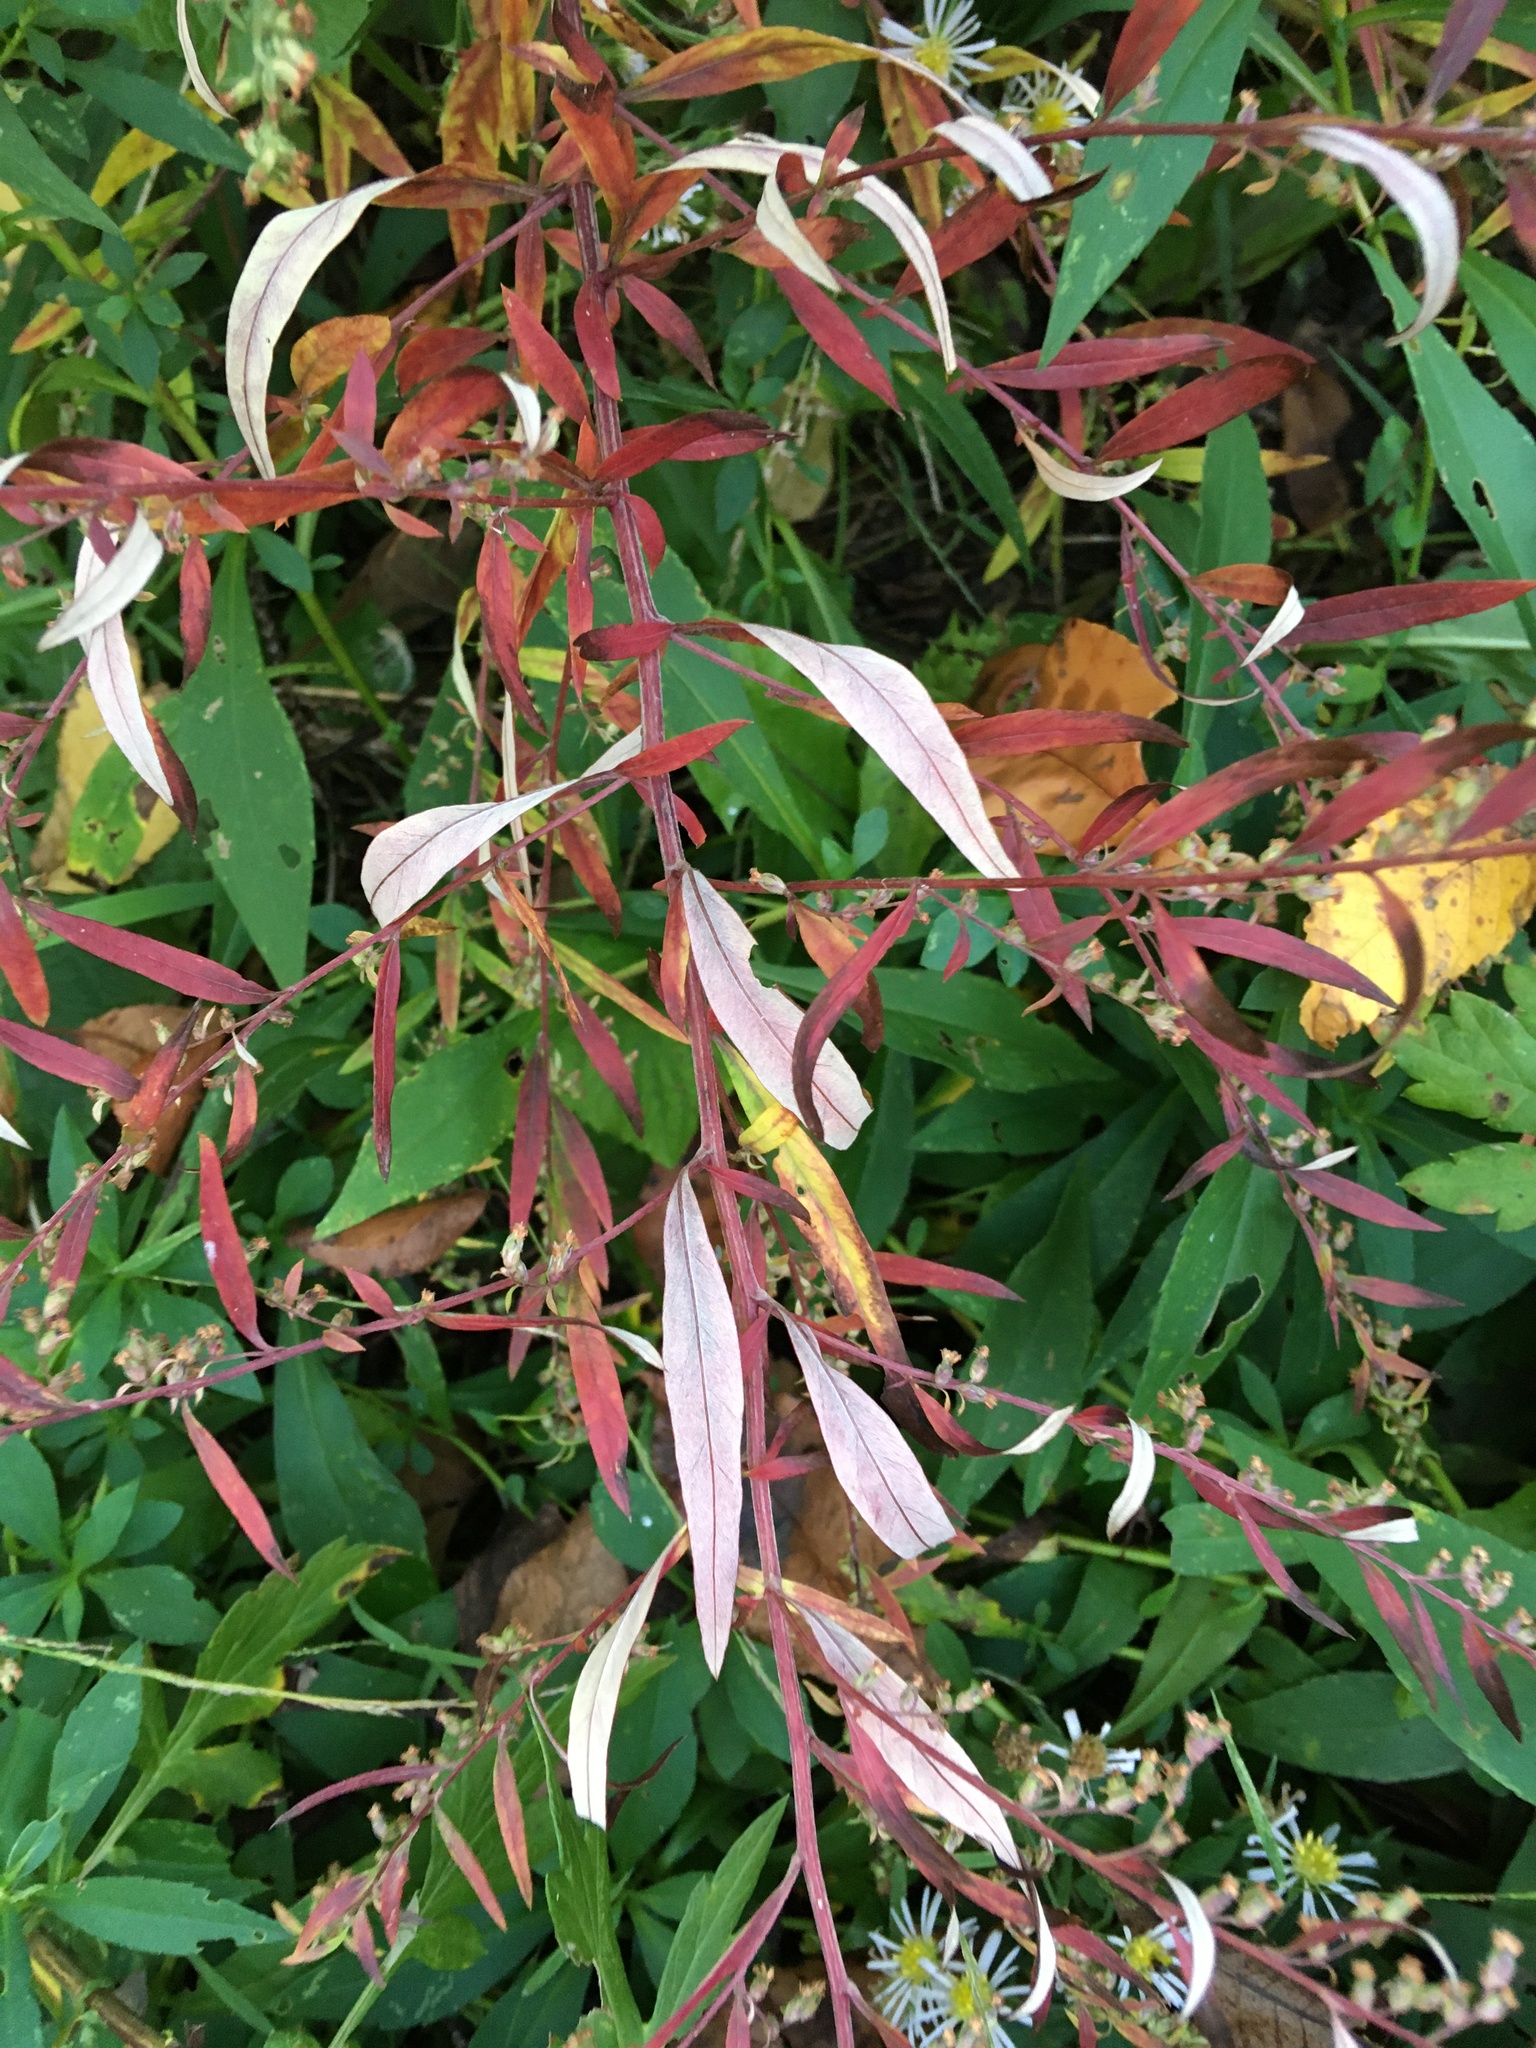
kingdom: Plantae
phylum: Tracheophyta
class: Magnoliopsida
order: Asterales
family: Asteraceae
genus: Artemisia
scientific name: Artemisia vulgaris
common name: Mugwort
